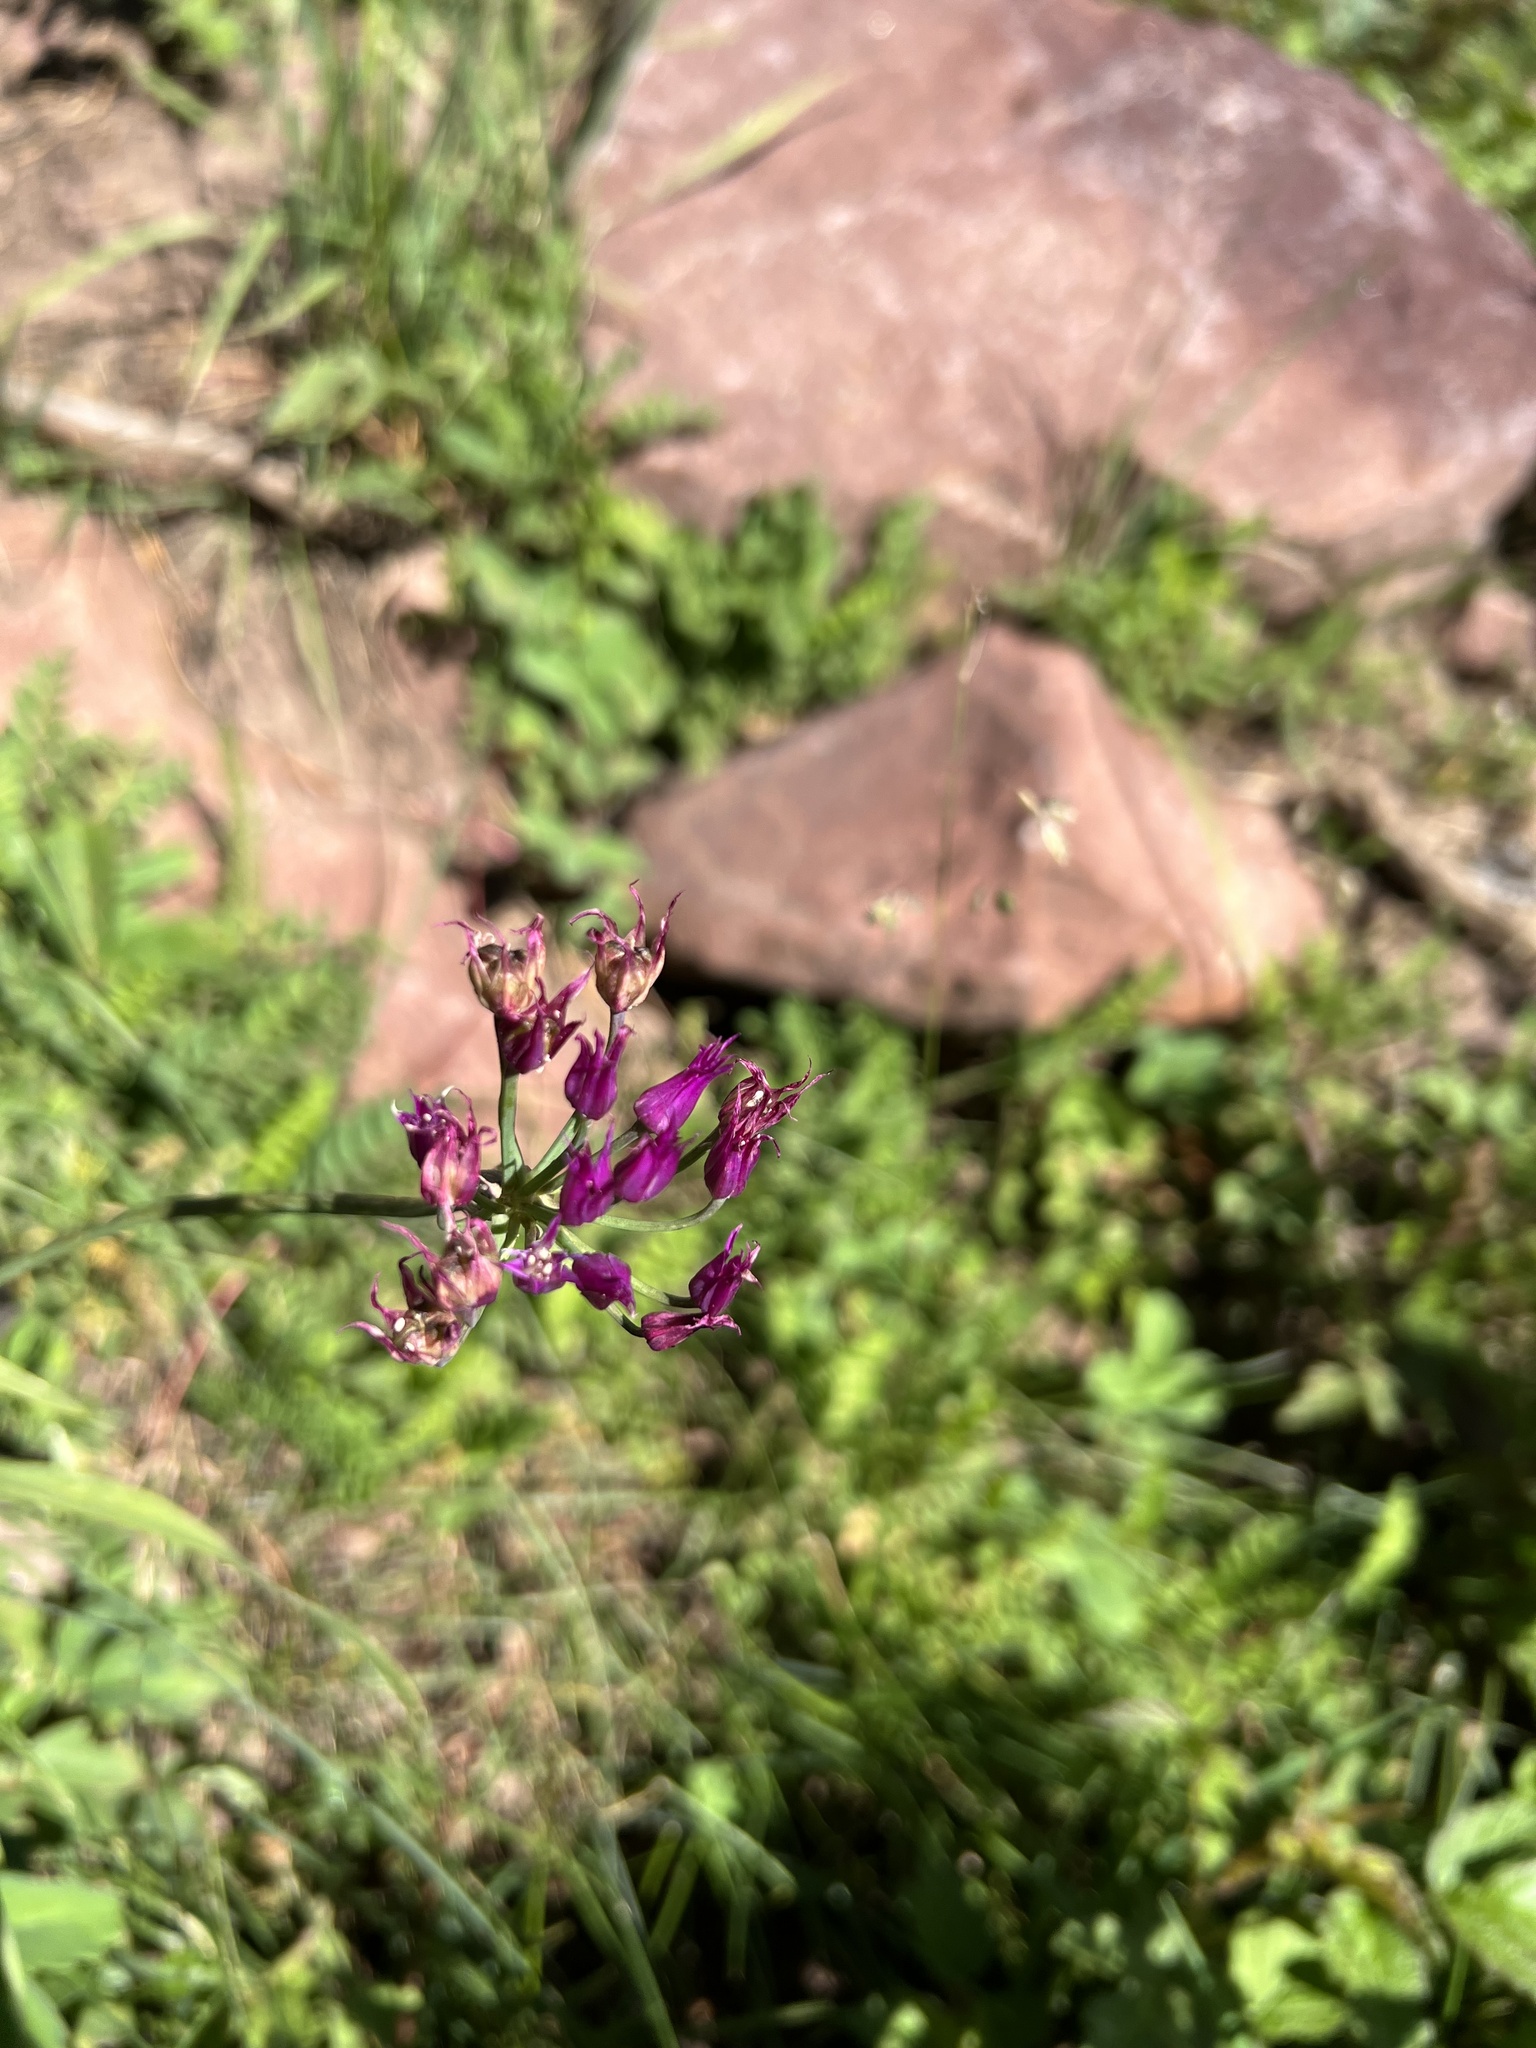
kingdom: Plantae
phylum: Tracheophyta
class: Liliopsida
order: Asparagales
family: Amaryllidaceae
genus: Allium
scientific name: Allium brevistylum
